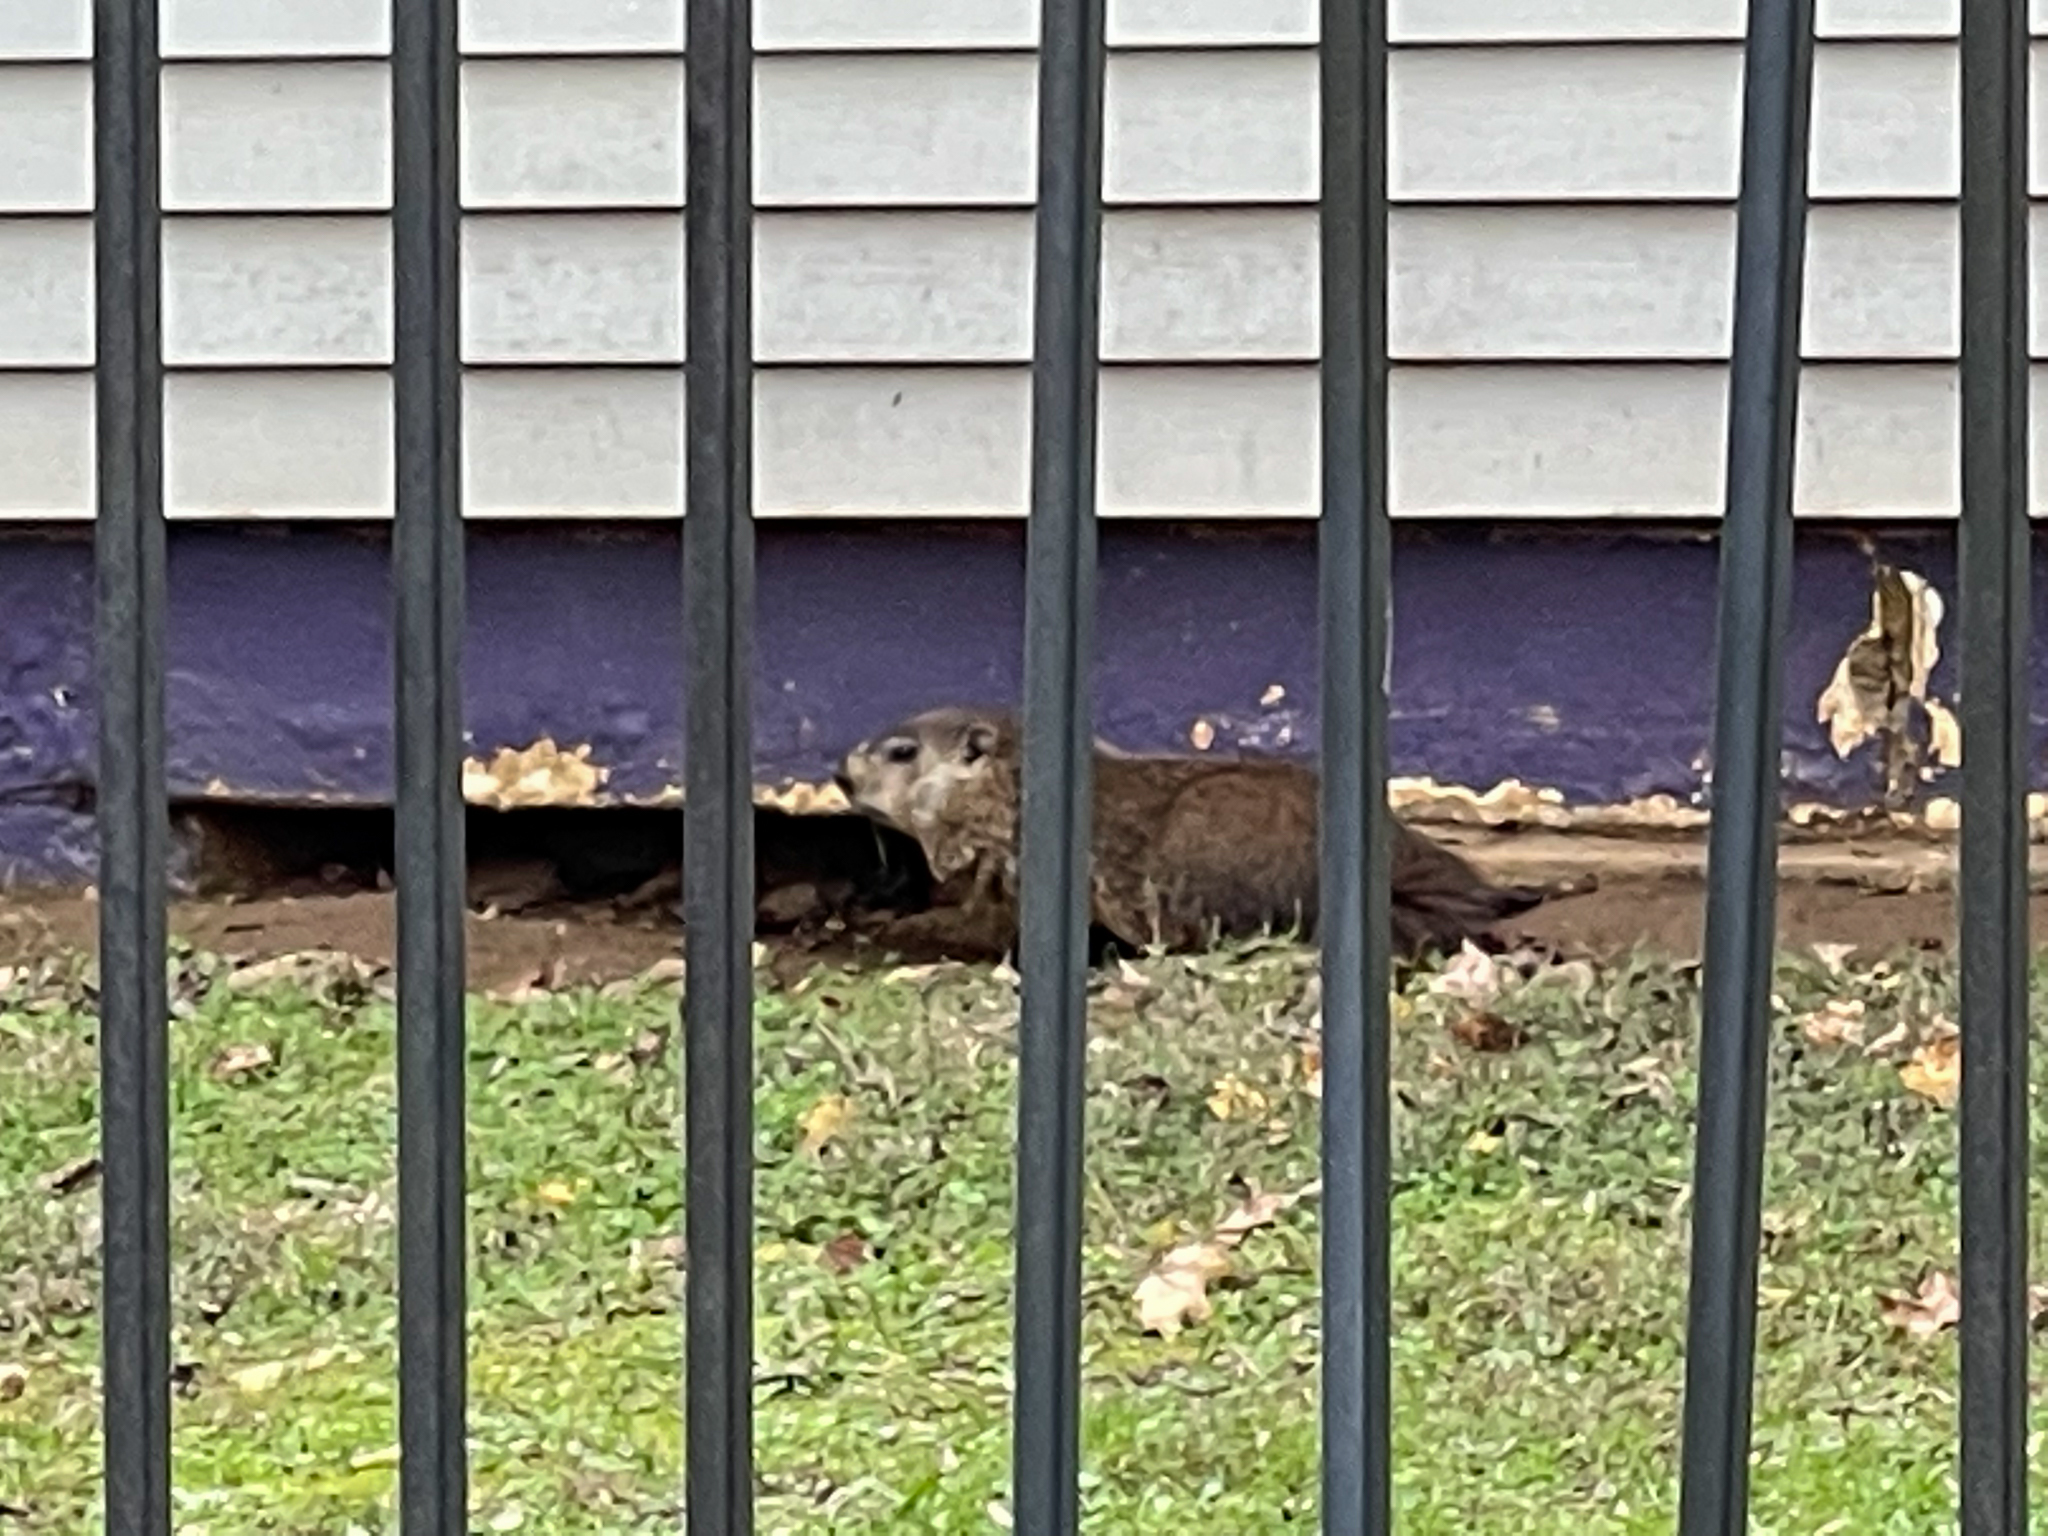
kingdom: Animalia
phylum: Chordata
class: Mammalia
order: Rodentia
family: Sciuridae
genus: Marmota
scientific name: Marmota monax
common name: Groundhog
